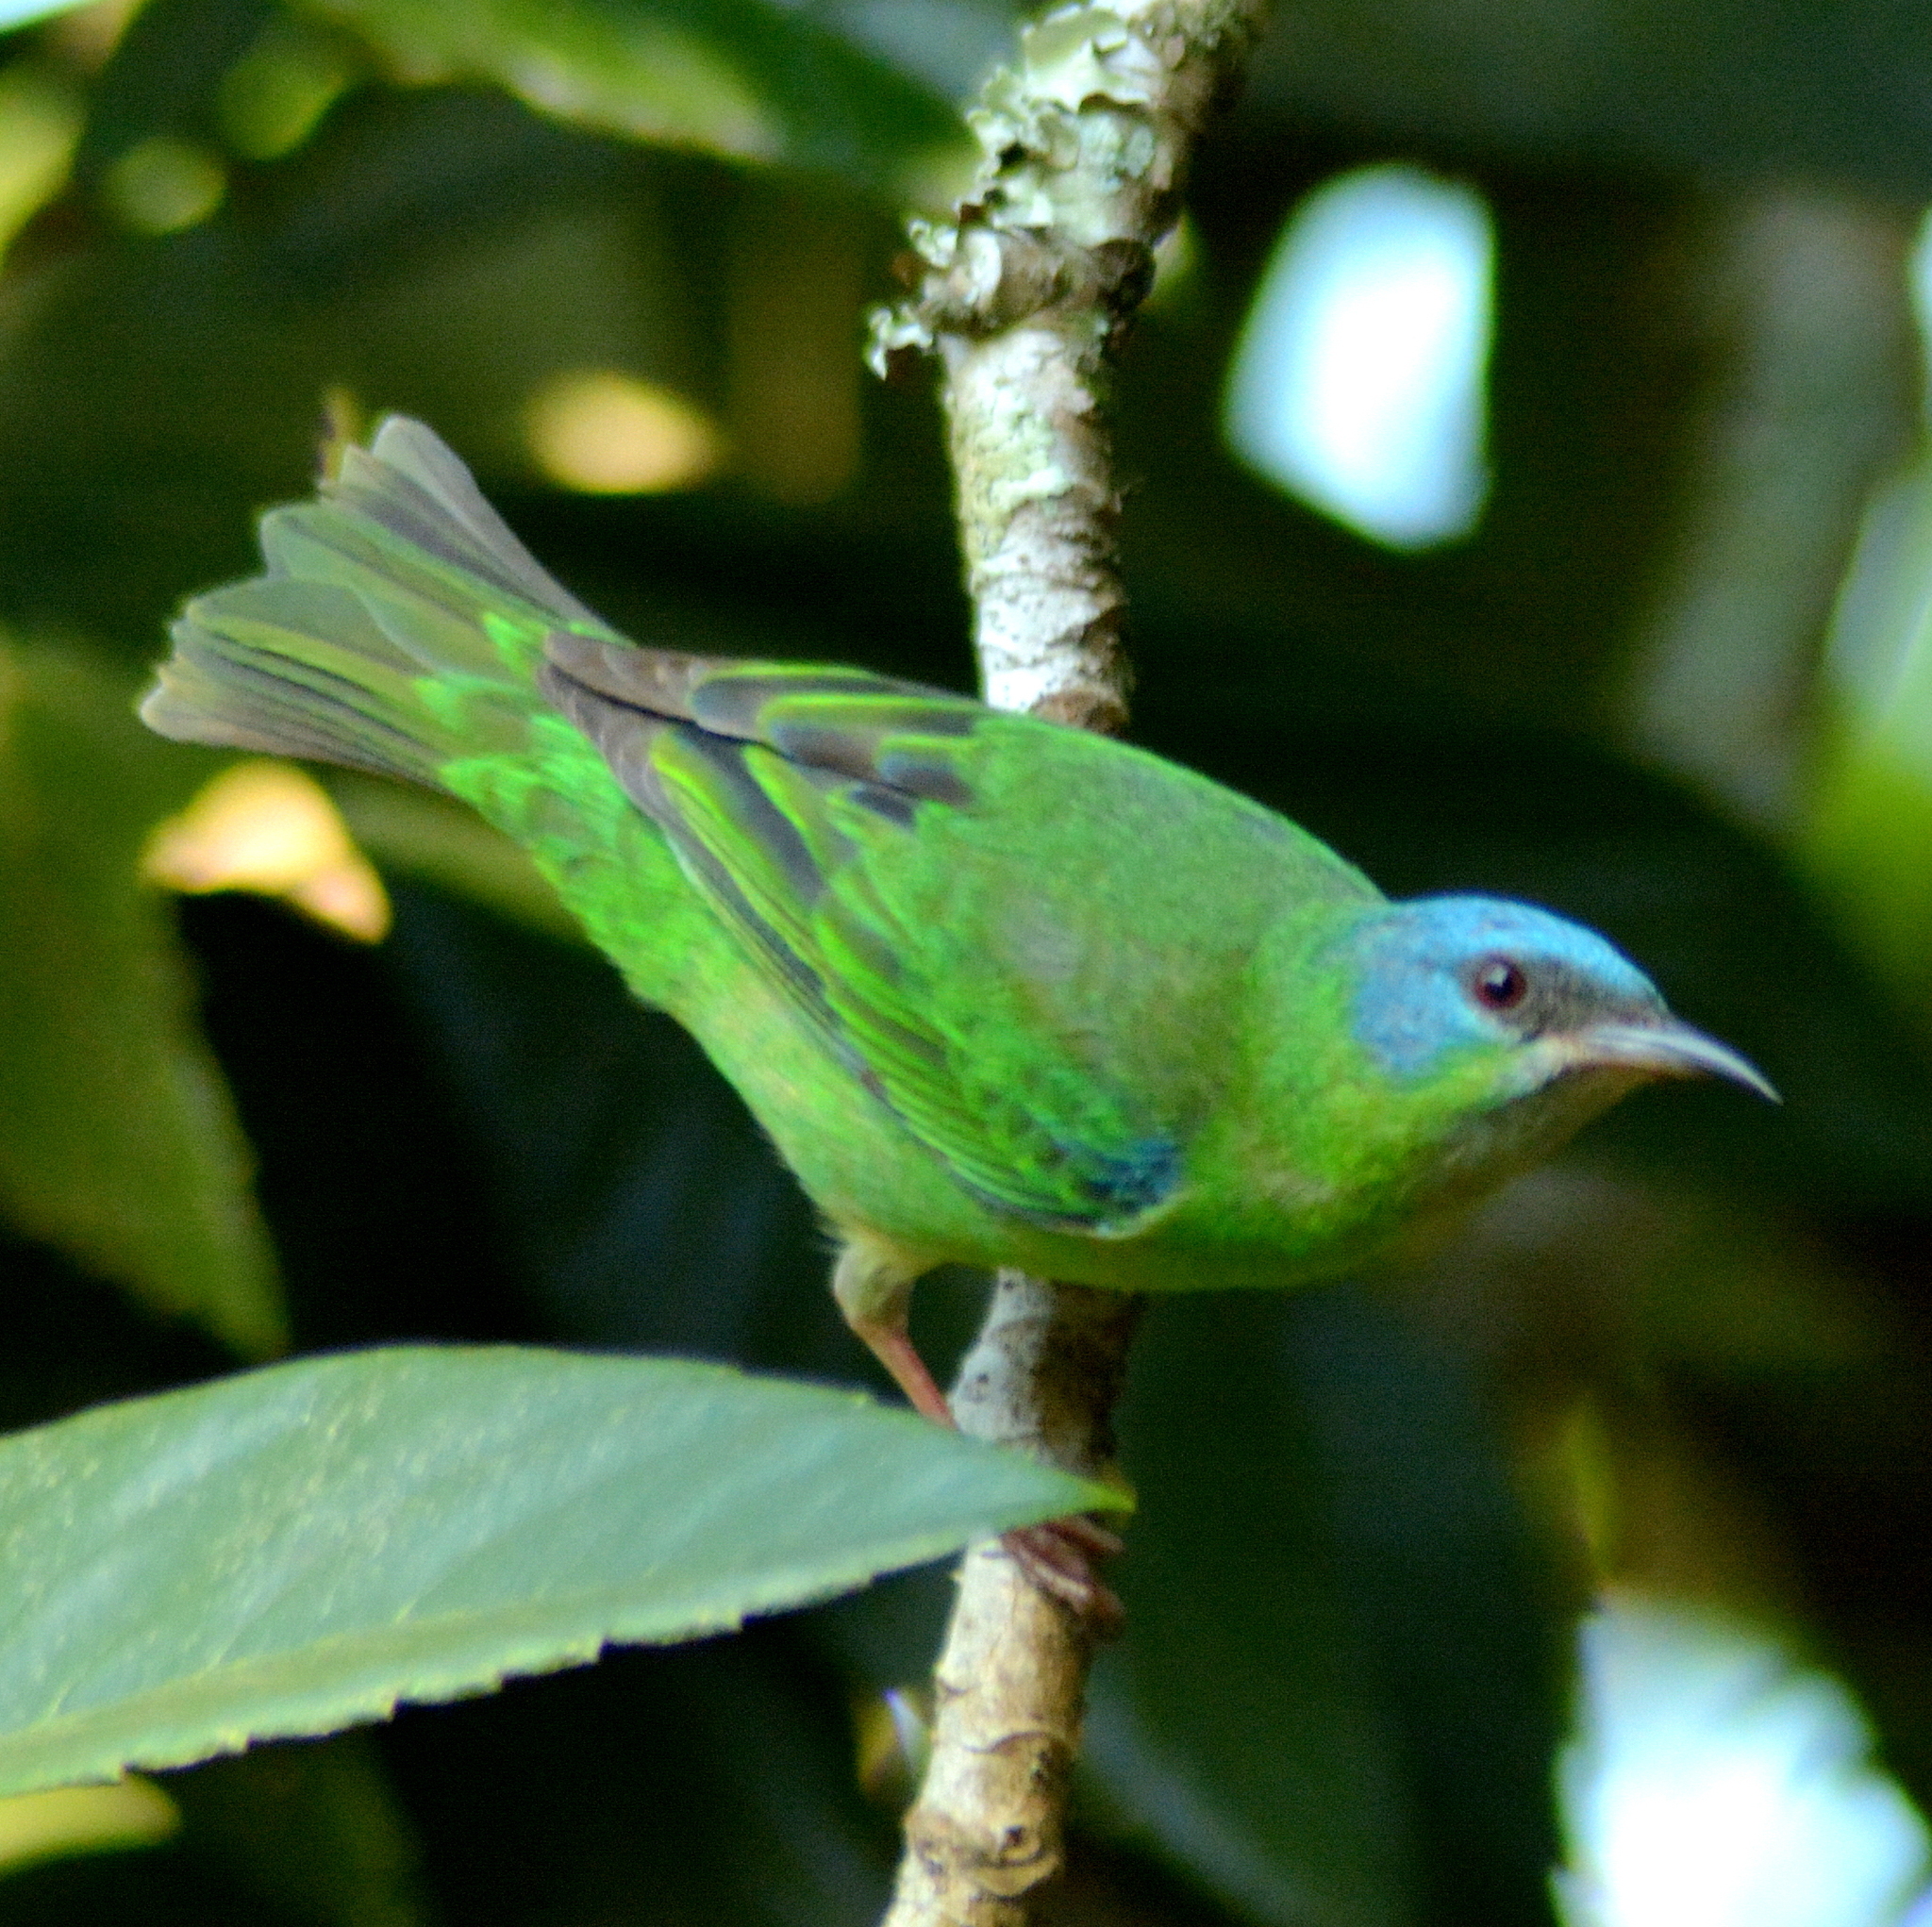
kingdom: Animalia
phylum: Chordata
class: Aves
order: Passeriformes
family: Thraupidae
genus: Dacnis
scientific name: Dacnis cayana
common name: Blue dacnis
